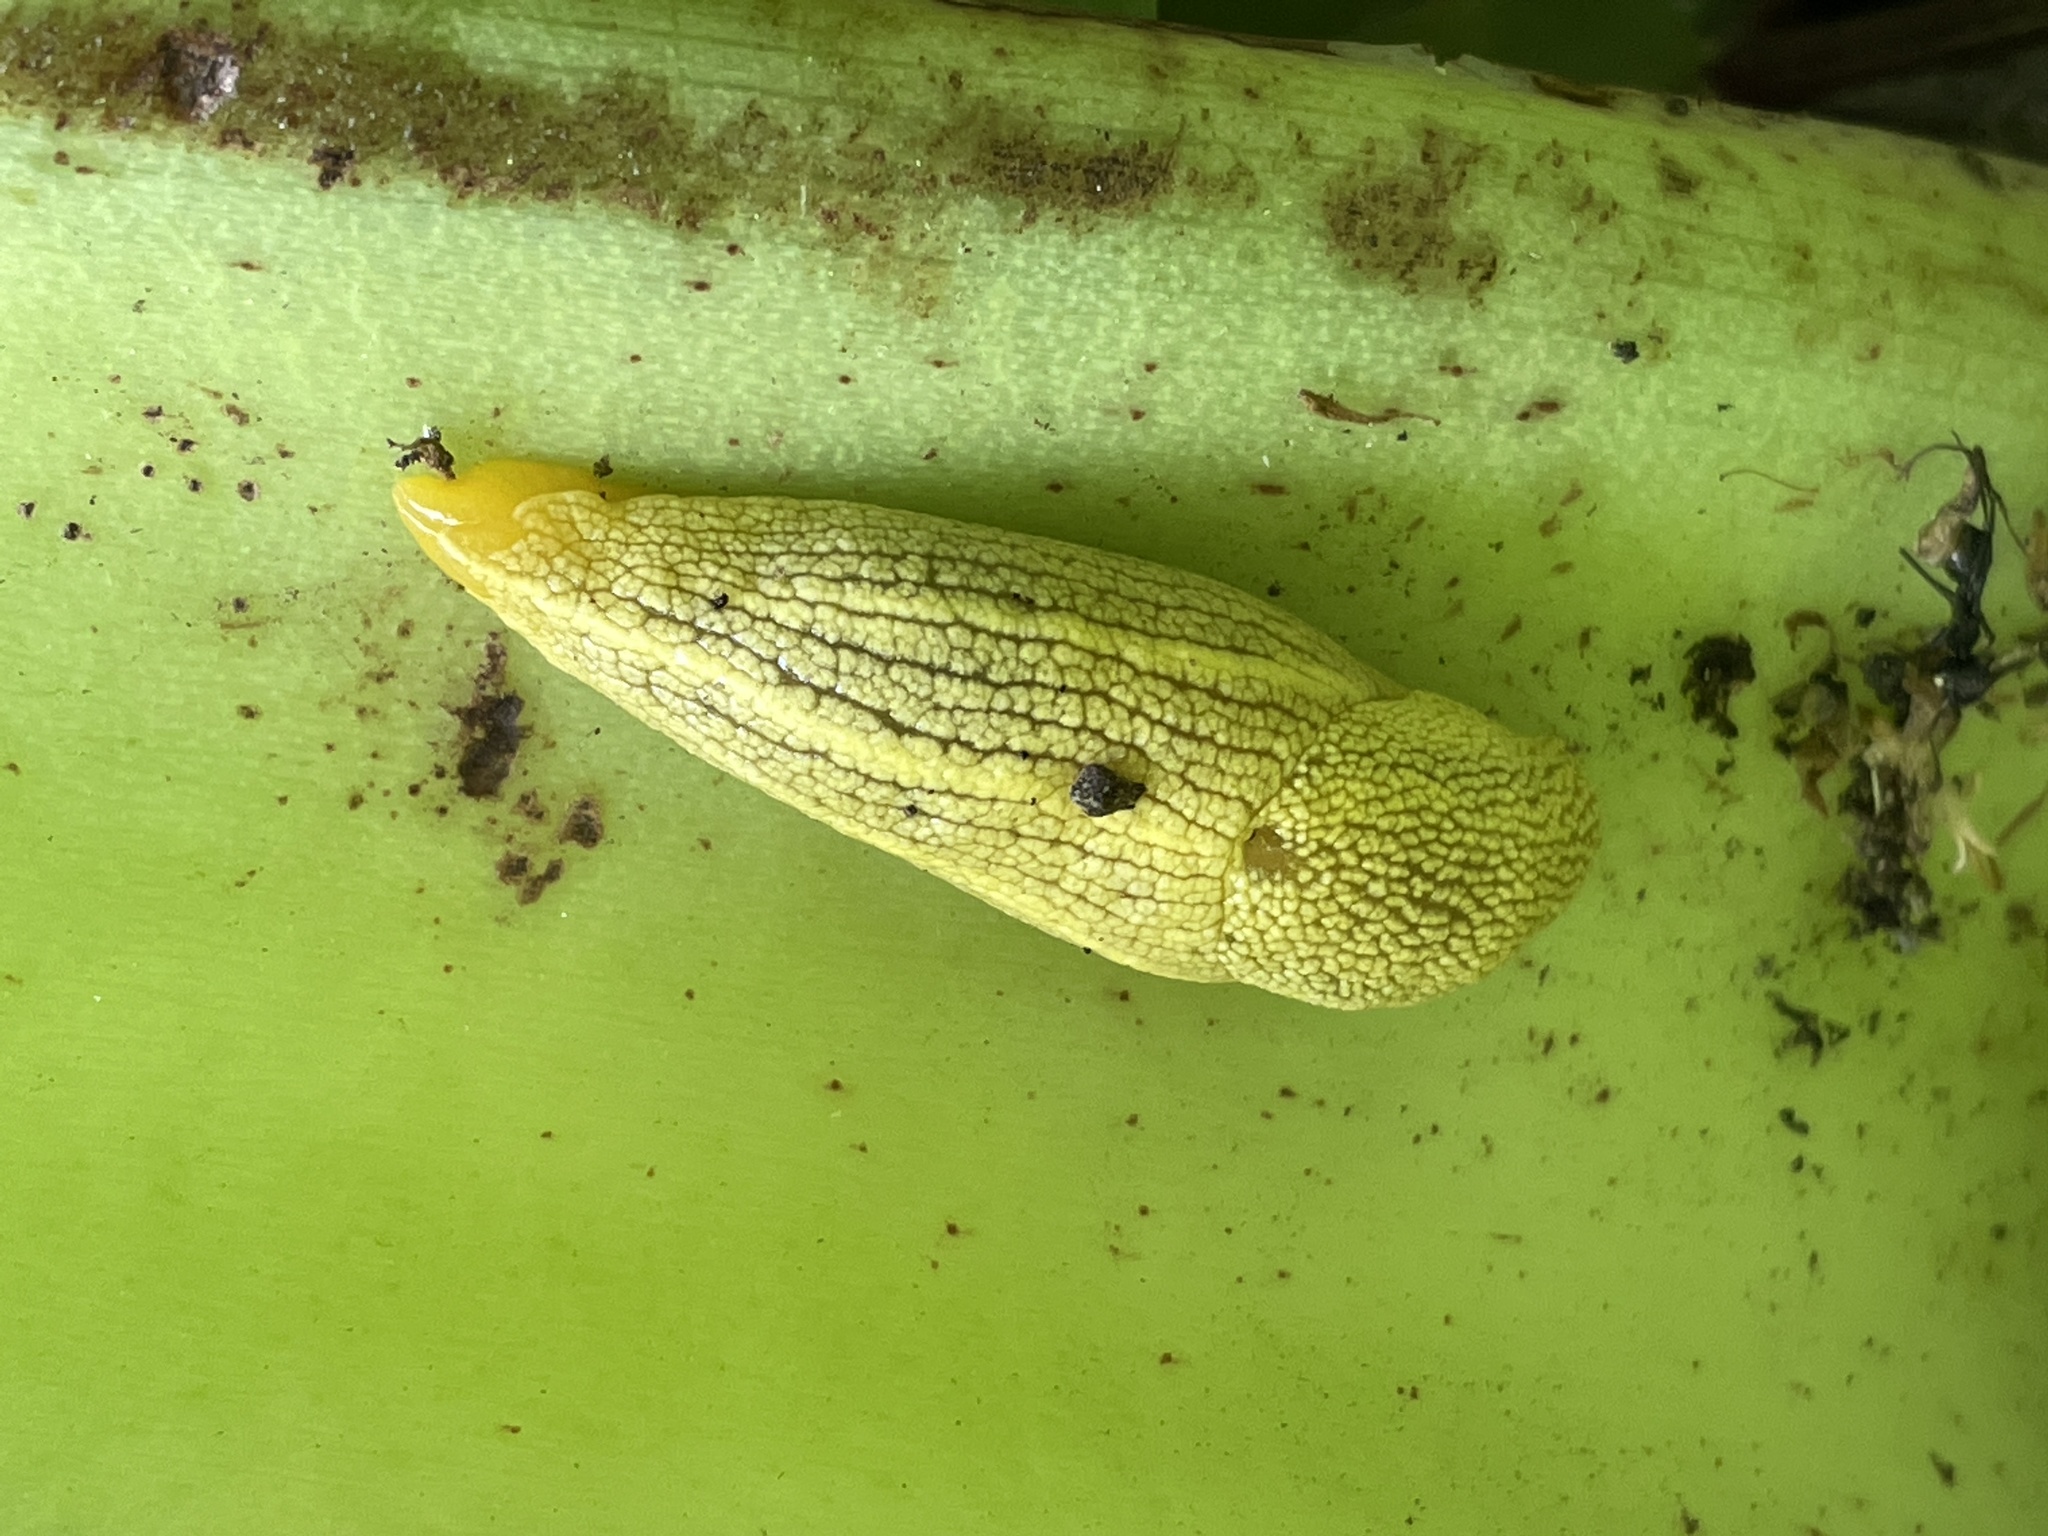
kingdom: Animalia
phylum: Mollusca
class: Gastropoda
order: Stylommatophora
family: Urocyclidae
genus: Elisolimax
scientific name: Elisolimax flavescens
